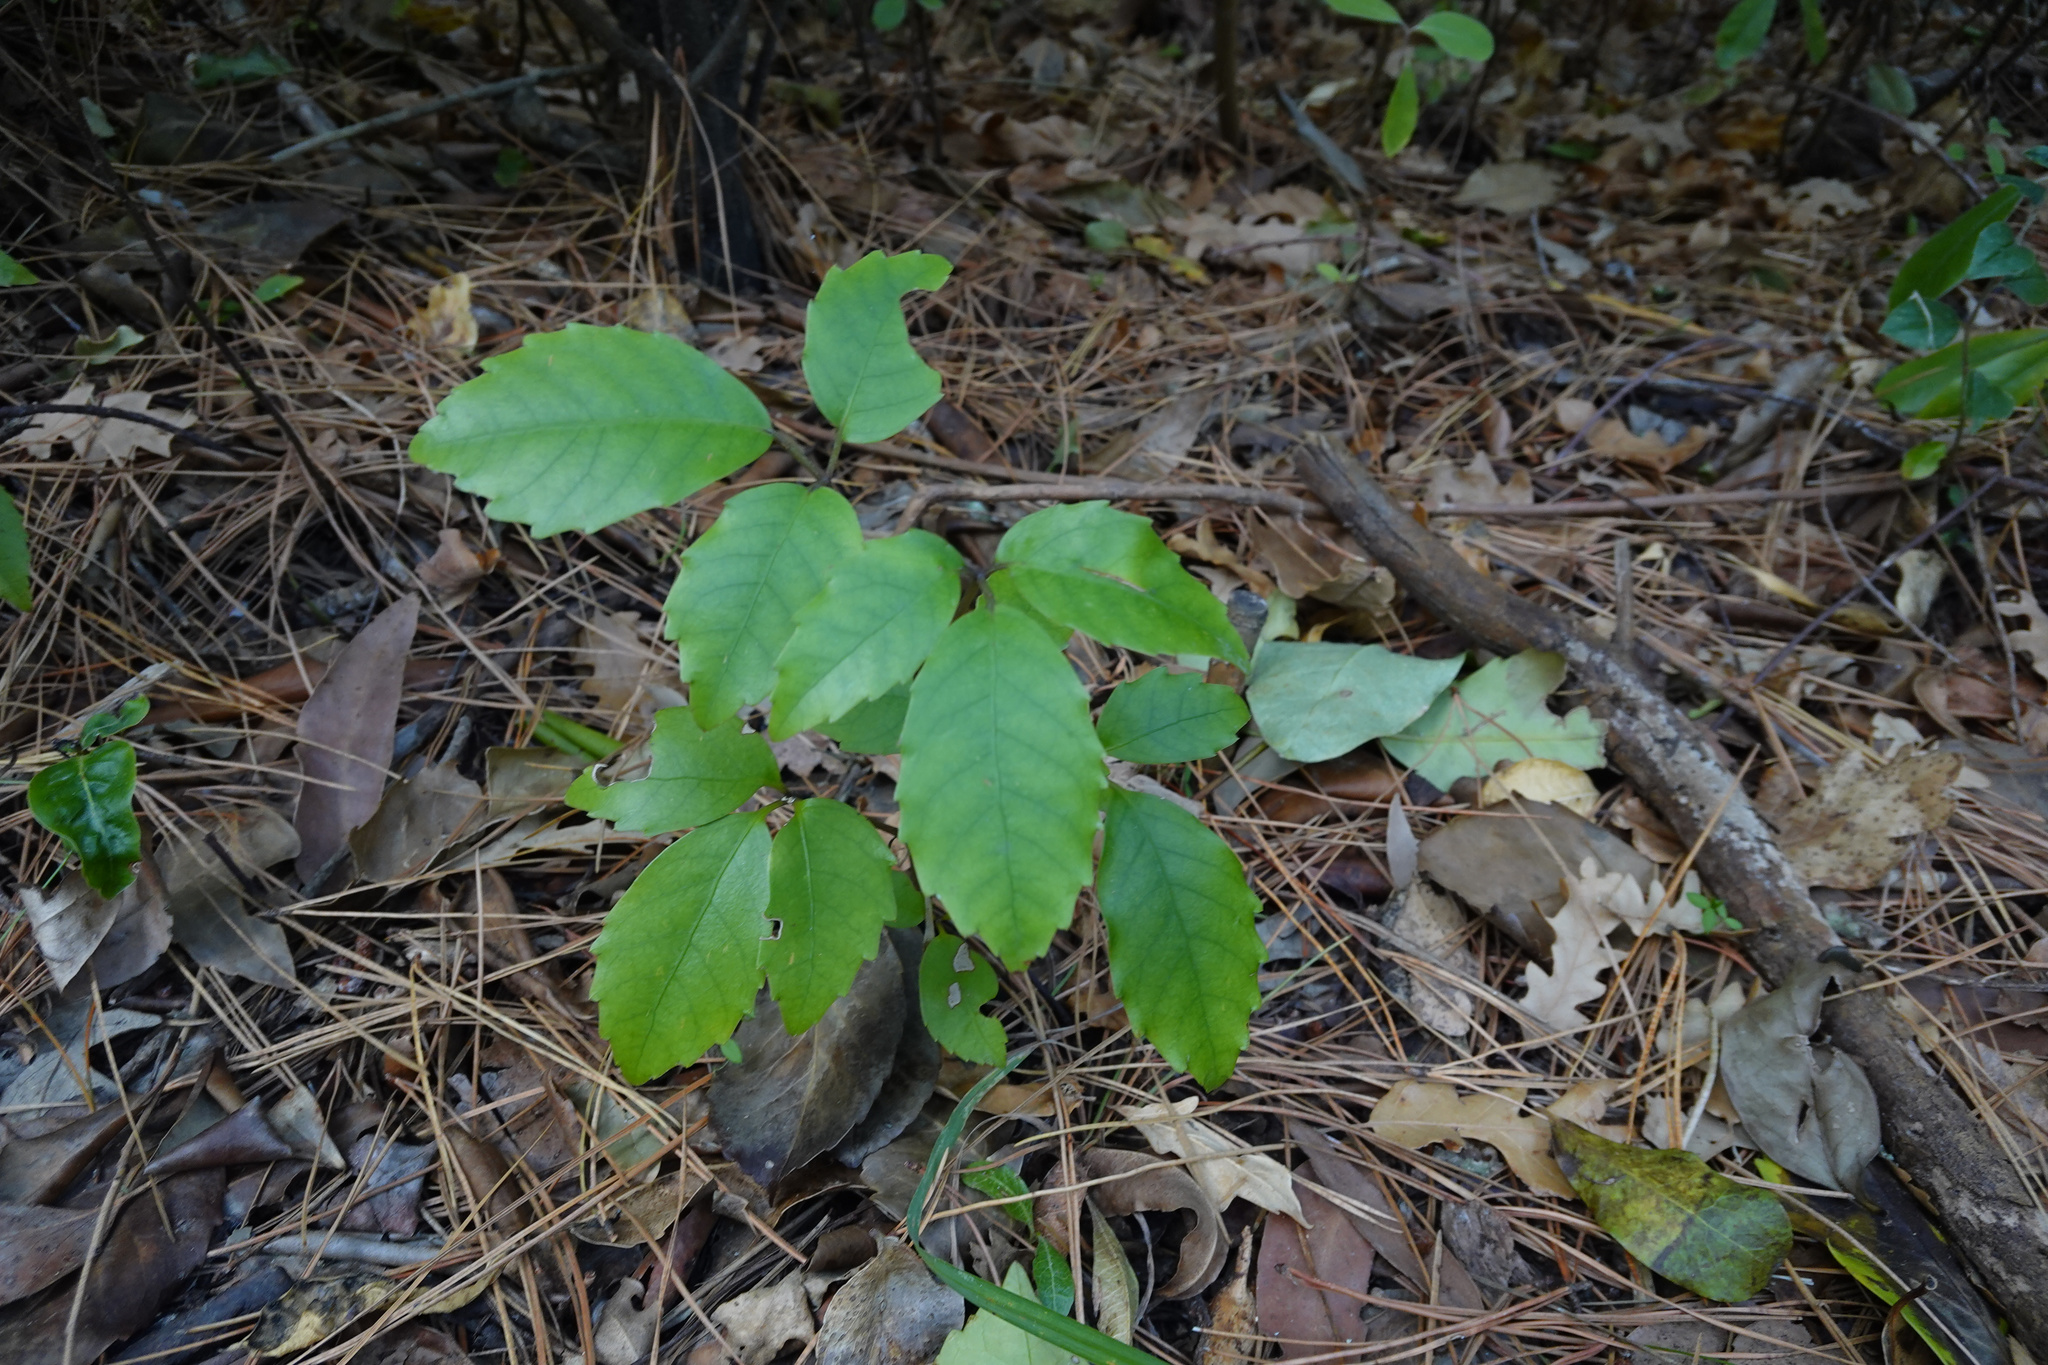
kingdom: Plantae
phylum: Tracheophyta
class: Magnoliopsida
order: Apiales
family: Araliaceae
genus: Neopanax
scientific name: Neopanax arboreus
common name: Five-fingers
